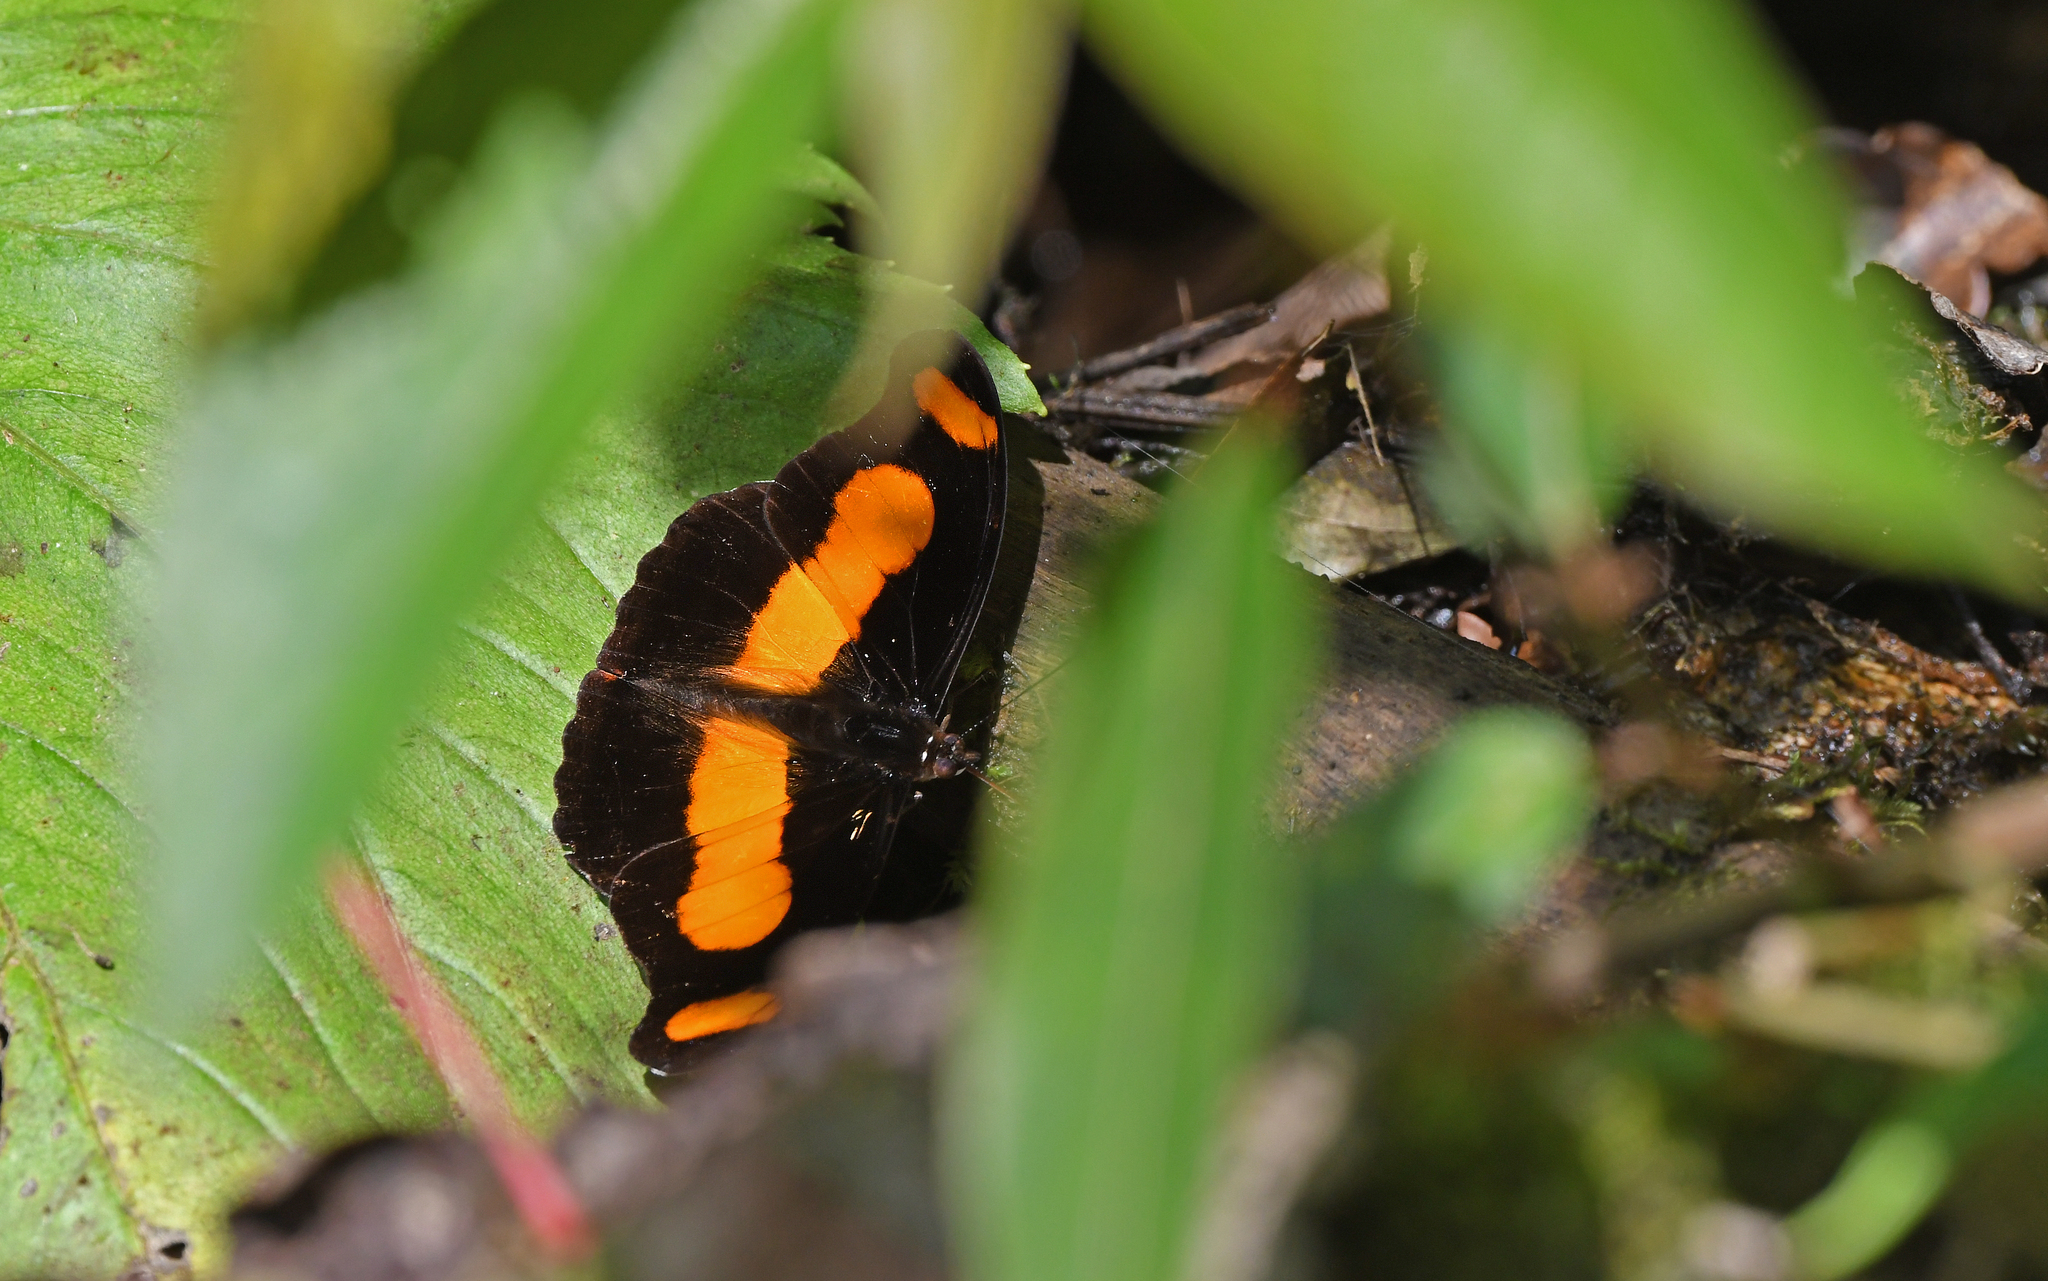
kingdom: Animalia
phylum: Arthropoda
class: Insecta
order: Lepidoptera
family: Nymphalidae
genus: Catonephele
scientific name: Catonephele chromis
